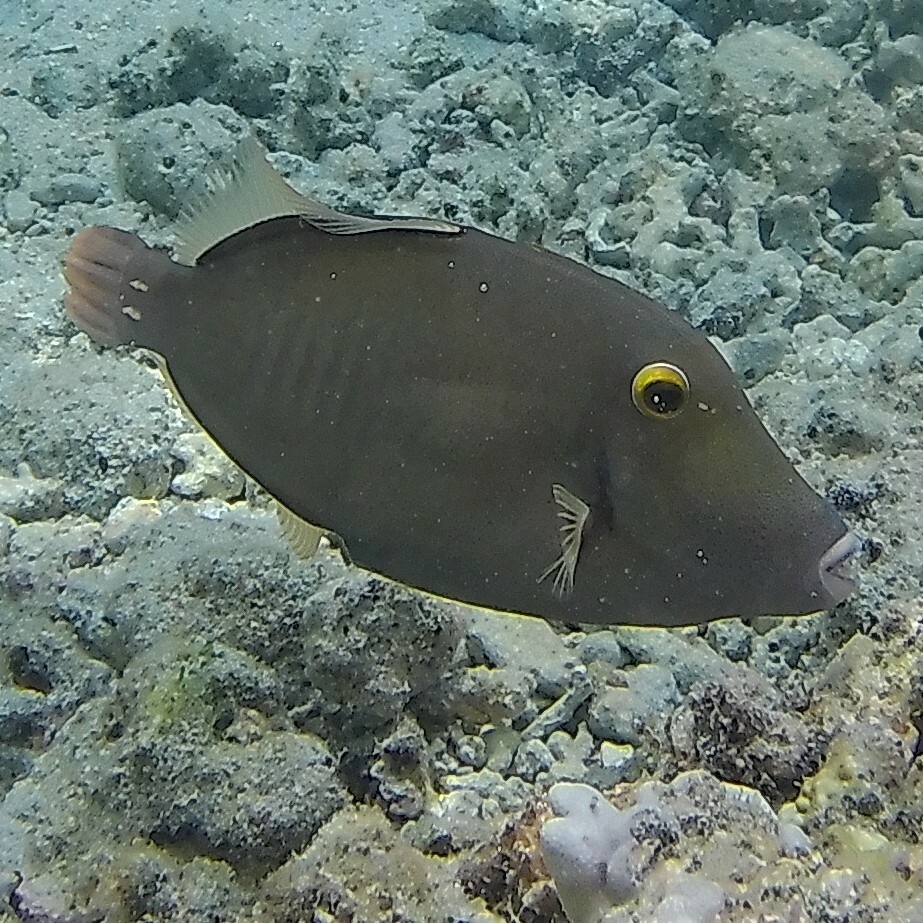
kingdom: Animalia
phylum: Chordata
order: Tetraodontiformes
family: Monacanthidae
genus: Cantherhines
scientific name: Cantherhines dumerilii
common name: Barred filefish
